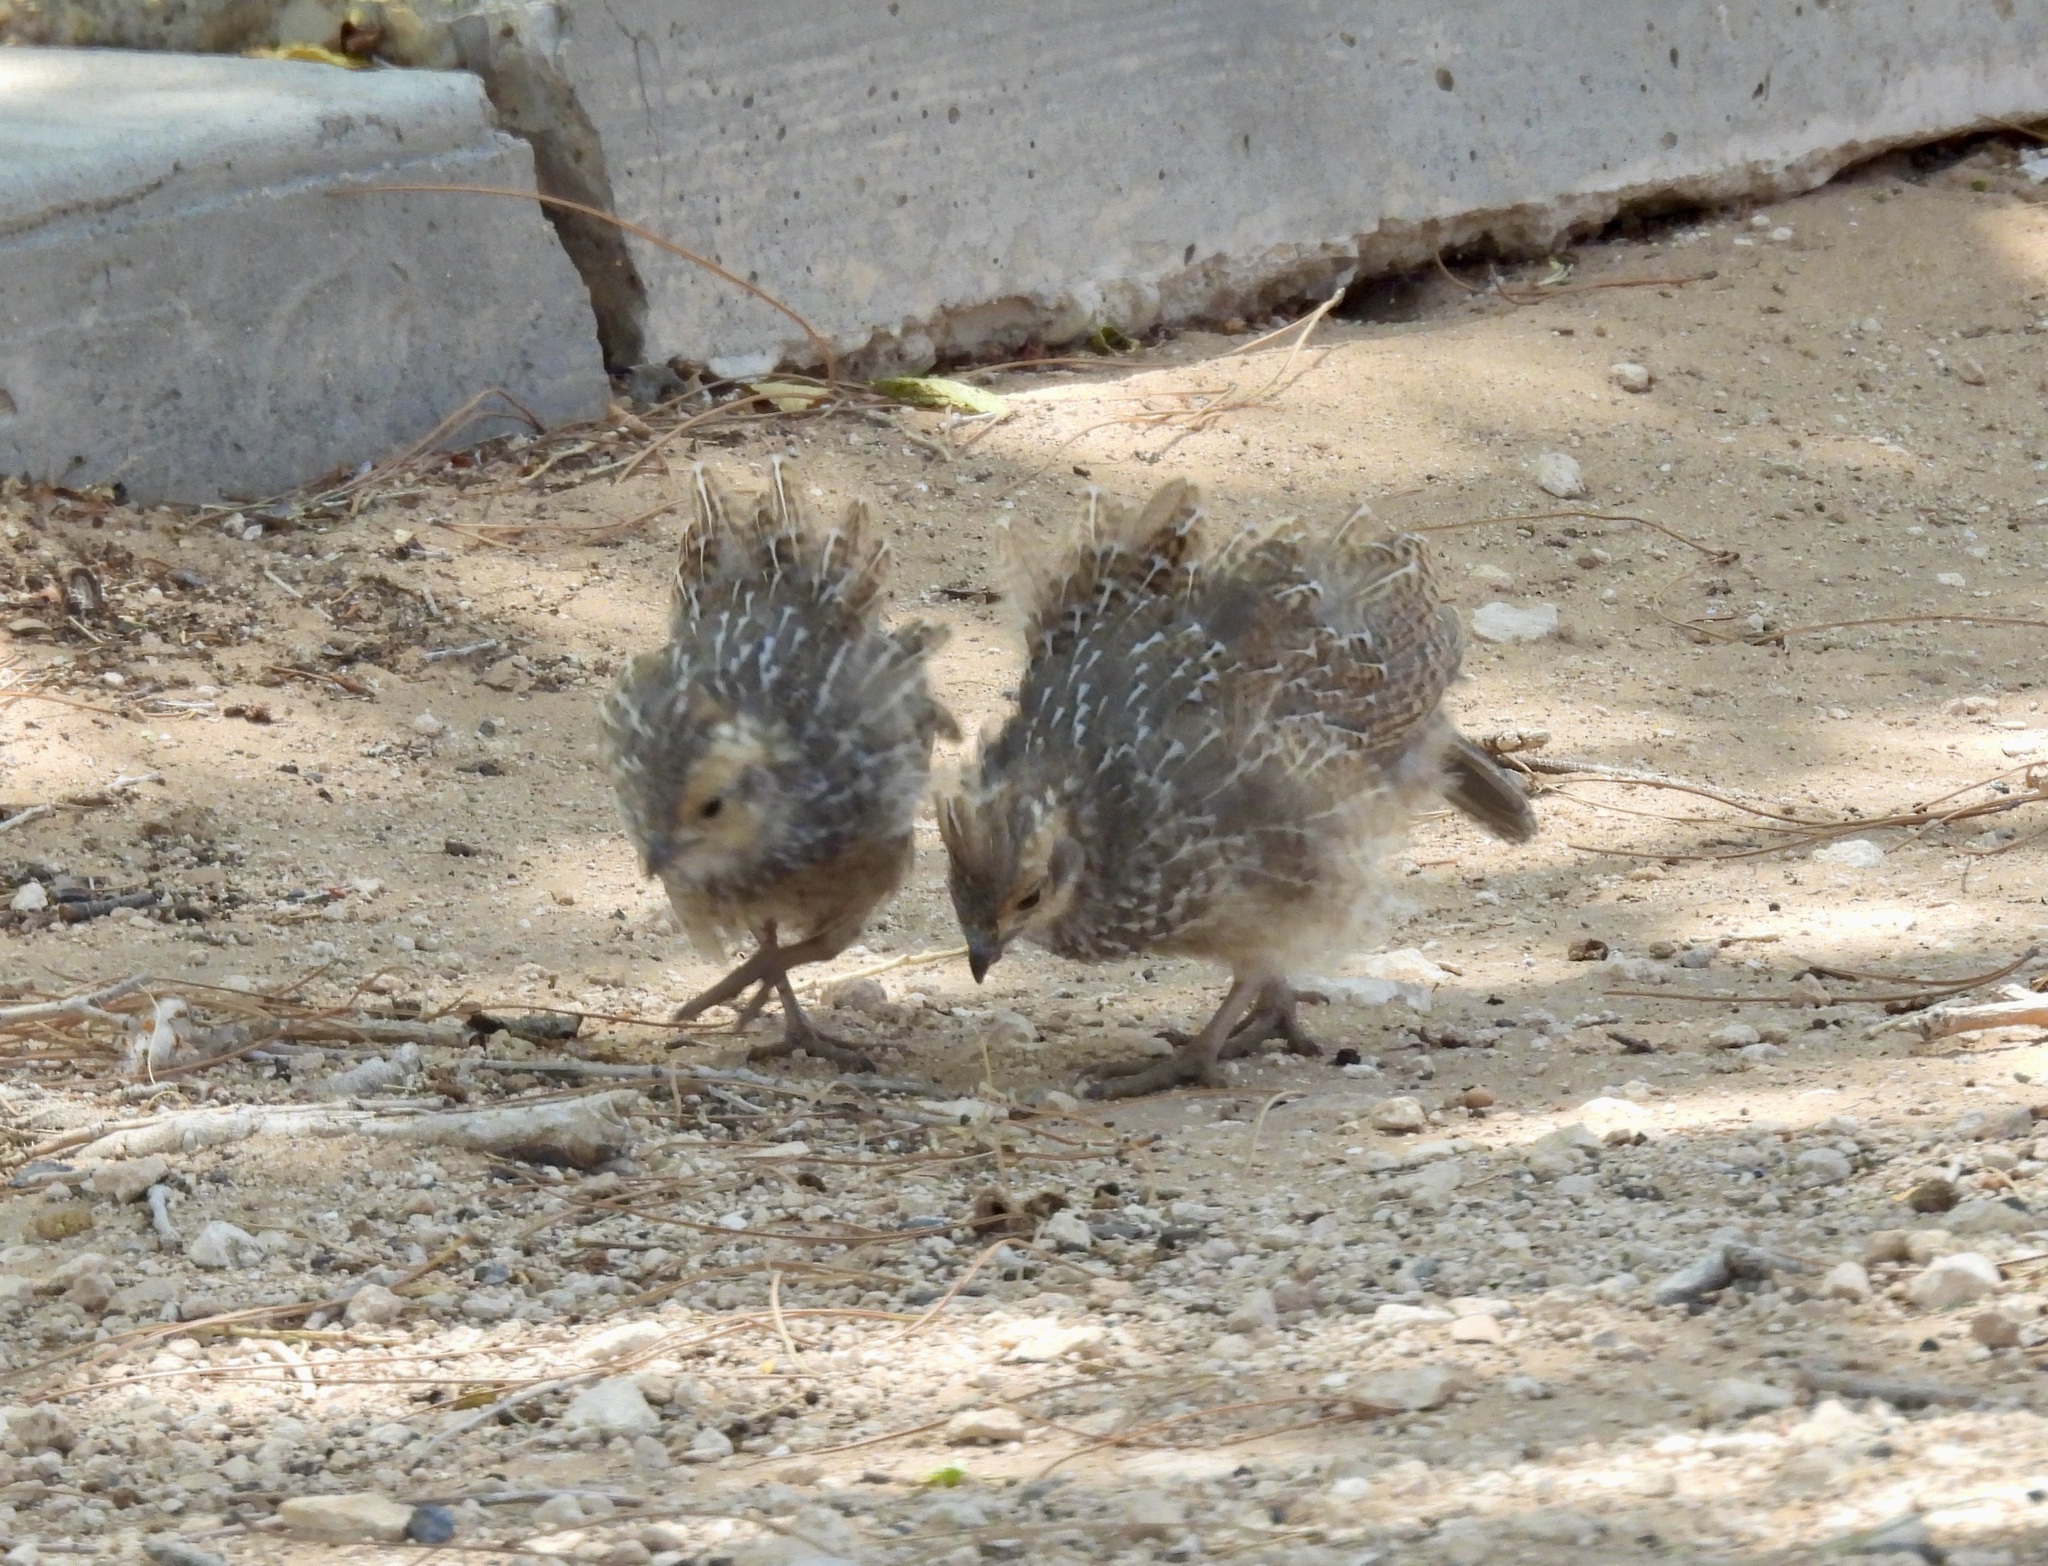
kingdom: Animalia
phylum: Chordata
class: Aves
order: Galliformes
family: Odontophoridae
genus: Callipepla
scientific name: Callipepla squamata
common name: Scaled quail
